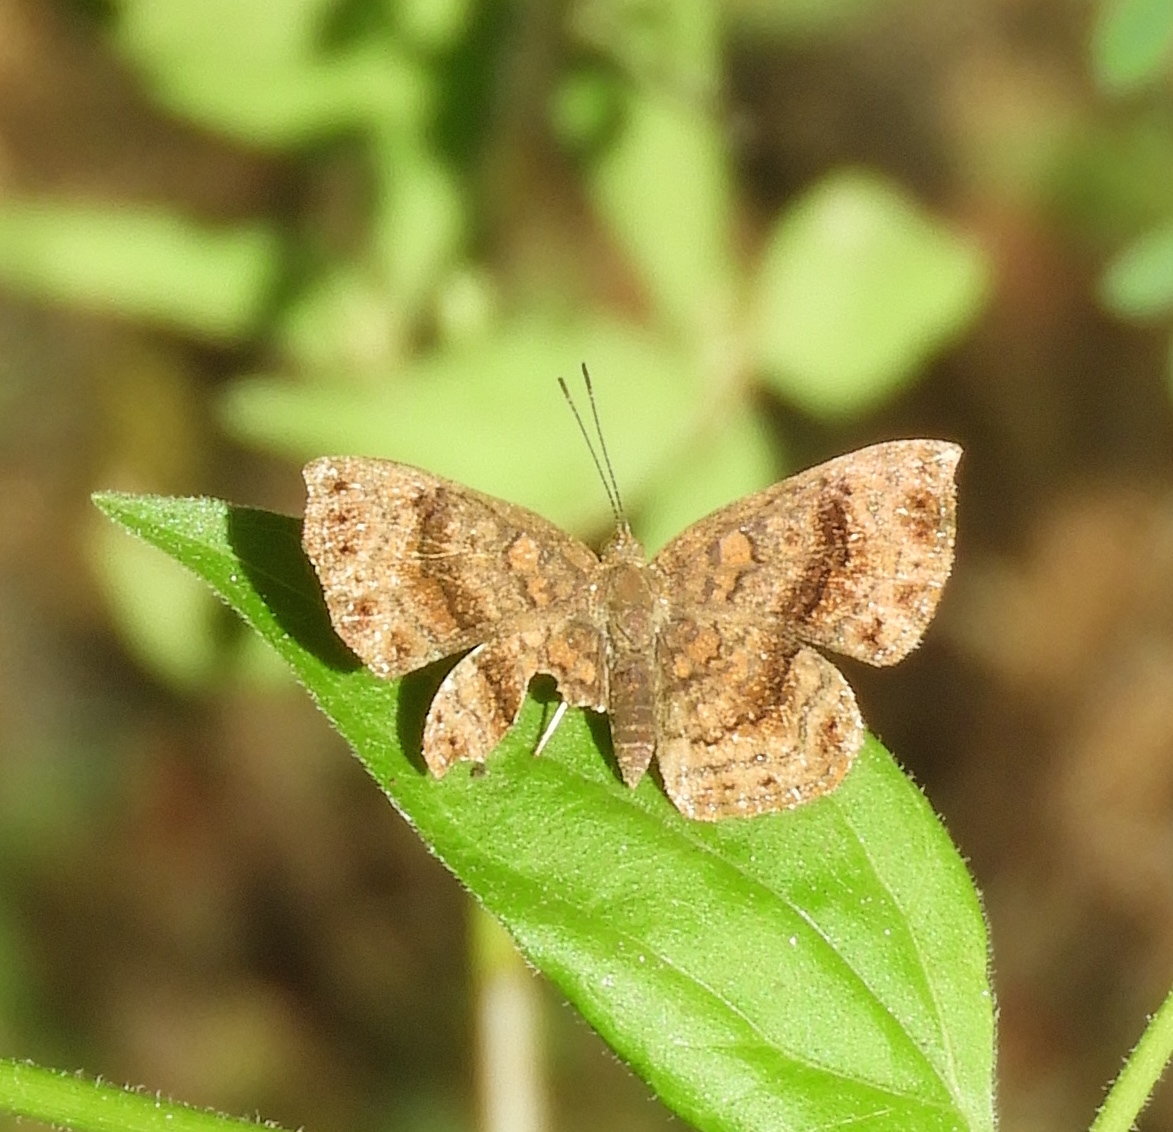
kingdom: Animalia
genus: Calephelis
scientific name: Calephelis mexicana
